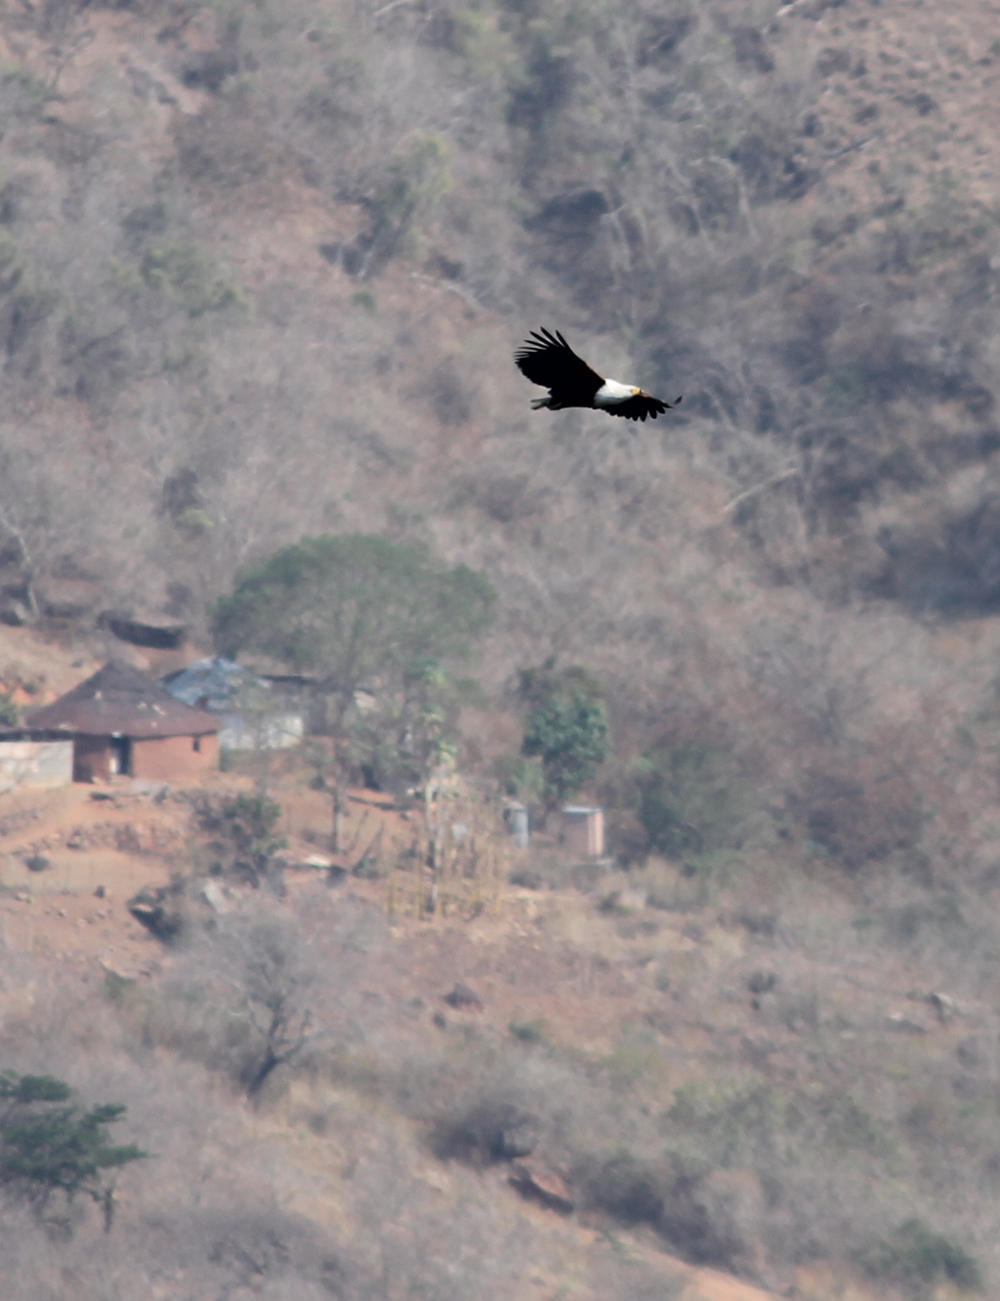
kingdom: Animalia
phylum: Chordata
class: Aves
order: Accipitriformes
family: Accipitridae
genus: Haliaeetus
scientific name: Haliaeetus vocifer
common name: African fish eagle
